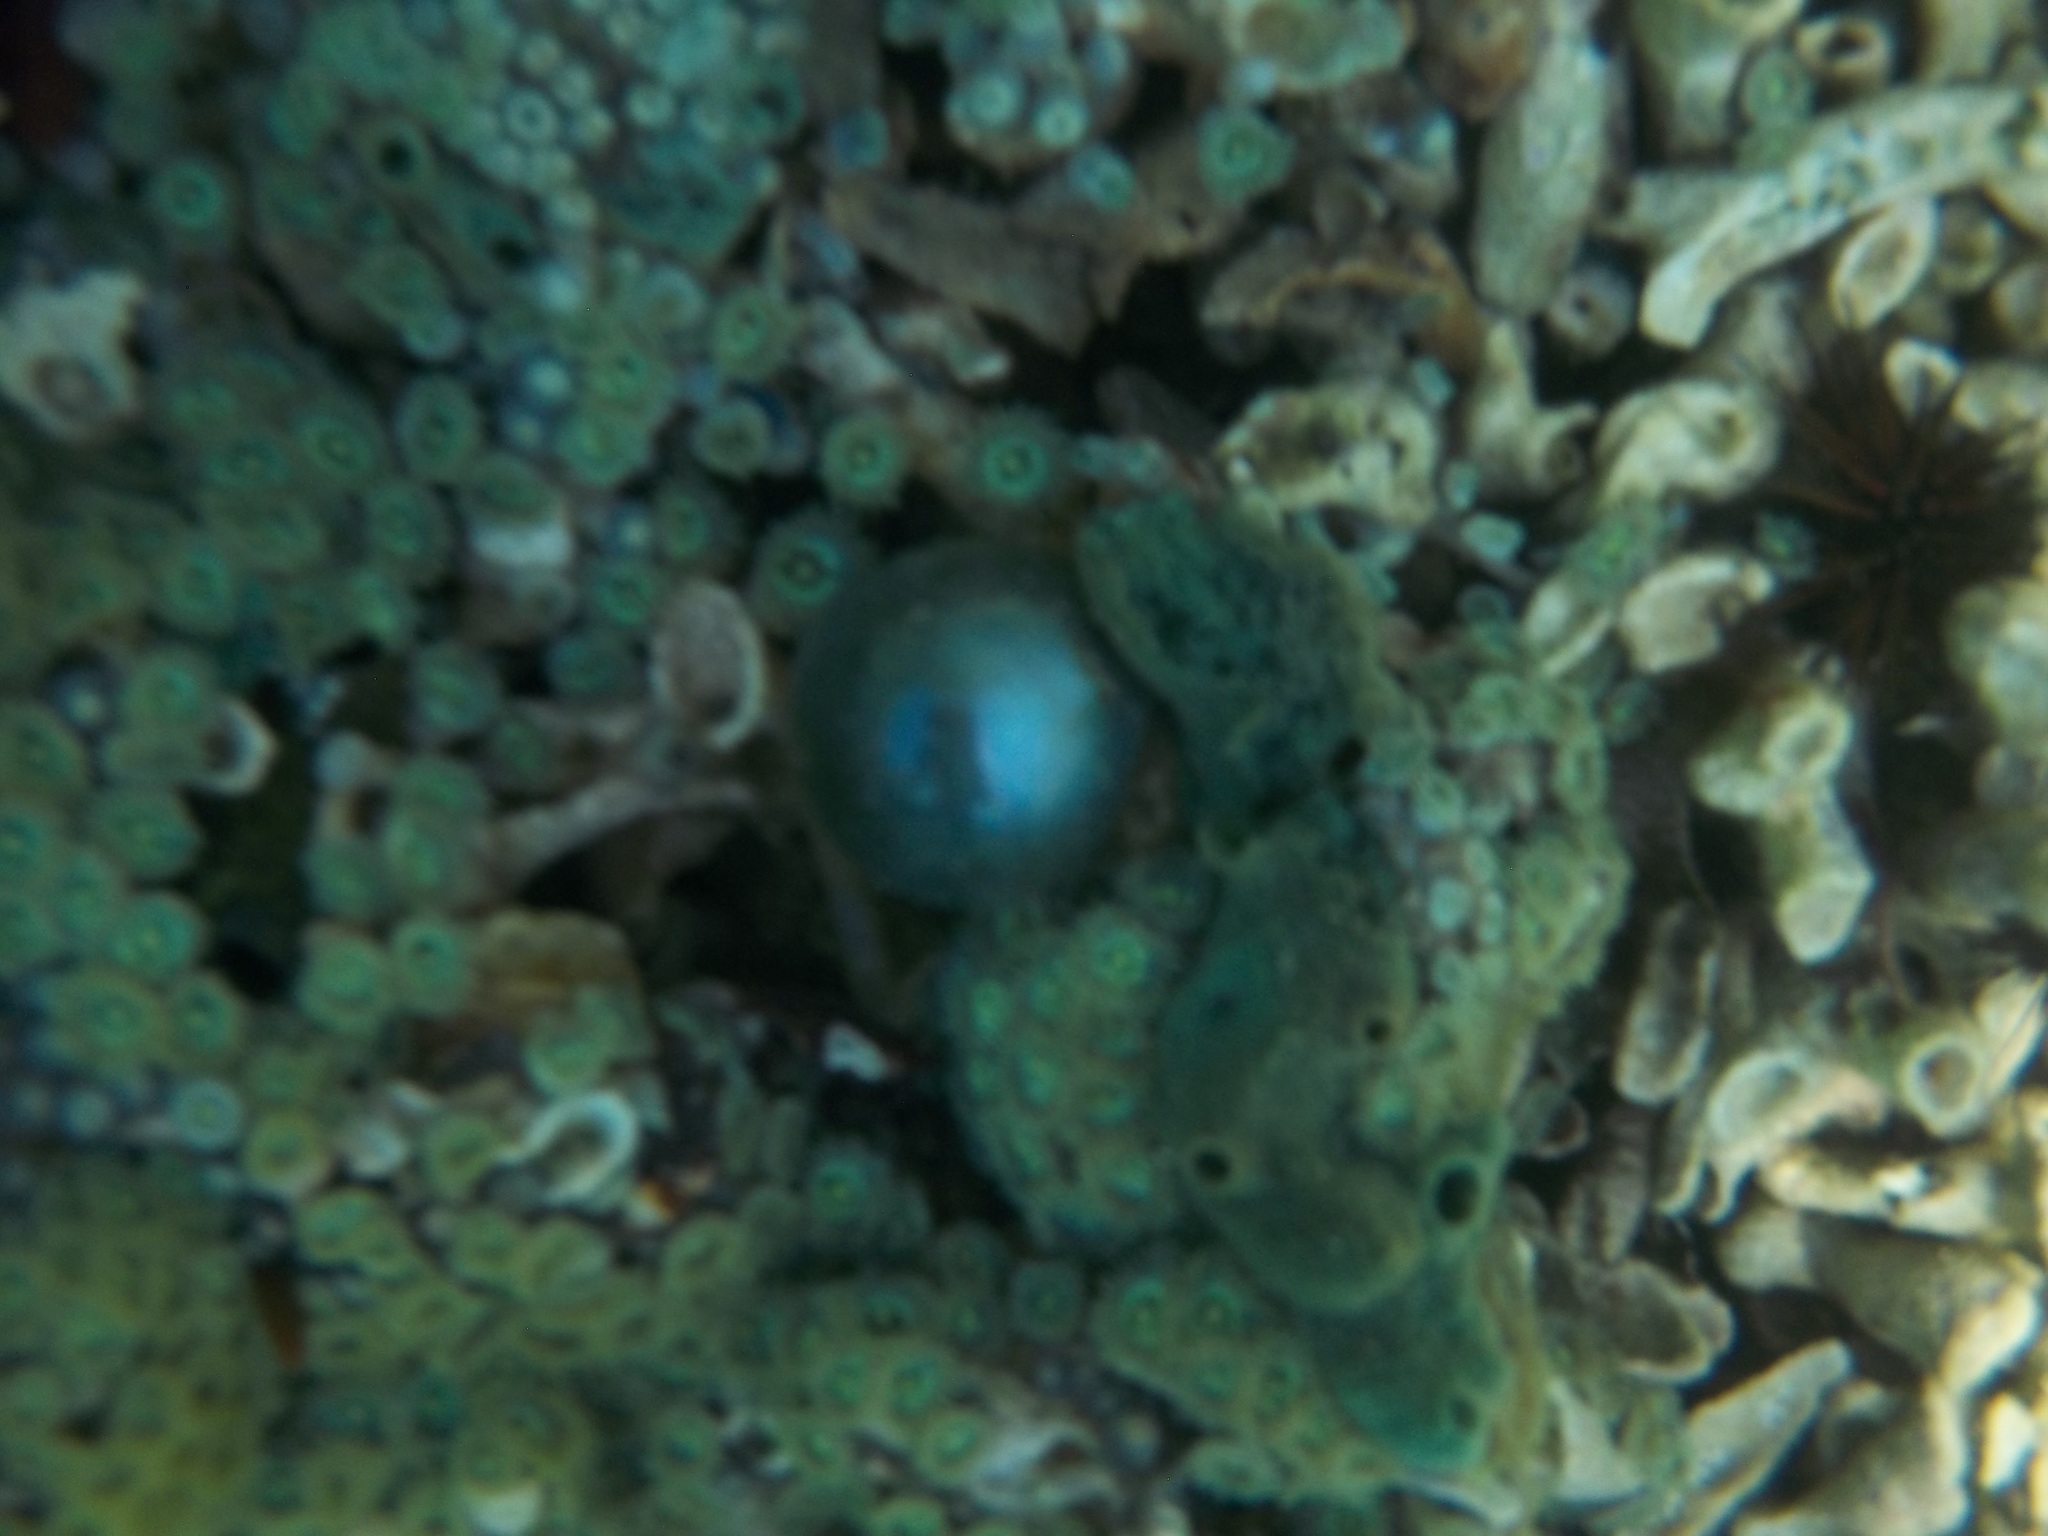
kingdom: Plantae
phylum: Chlorophyta
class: Ulvophyceae
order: Siphonocladales
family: Valoniaceae
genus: Valonia
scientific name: Valonia ventricosa
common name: Sea pearl
